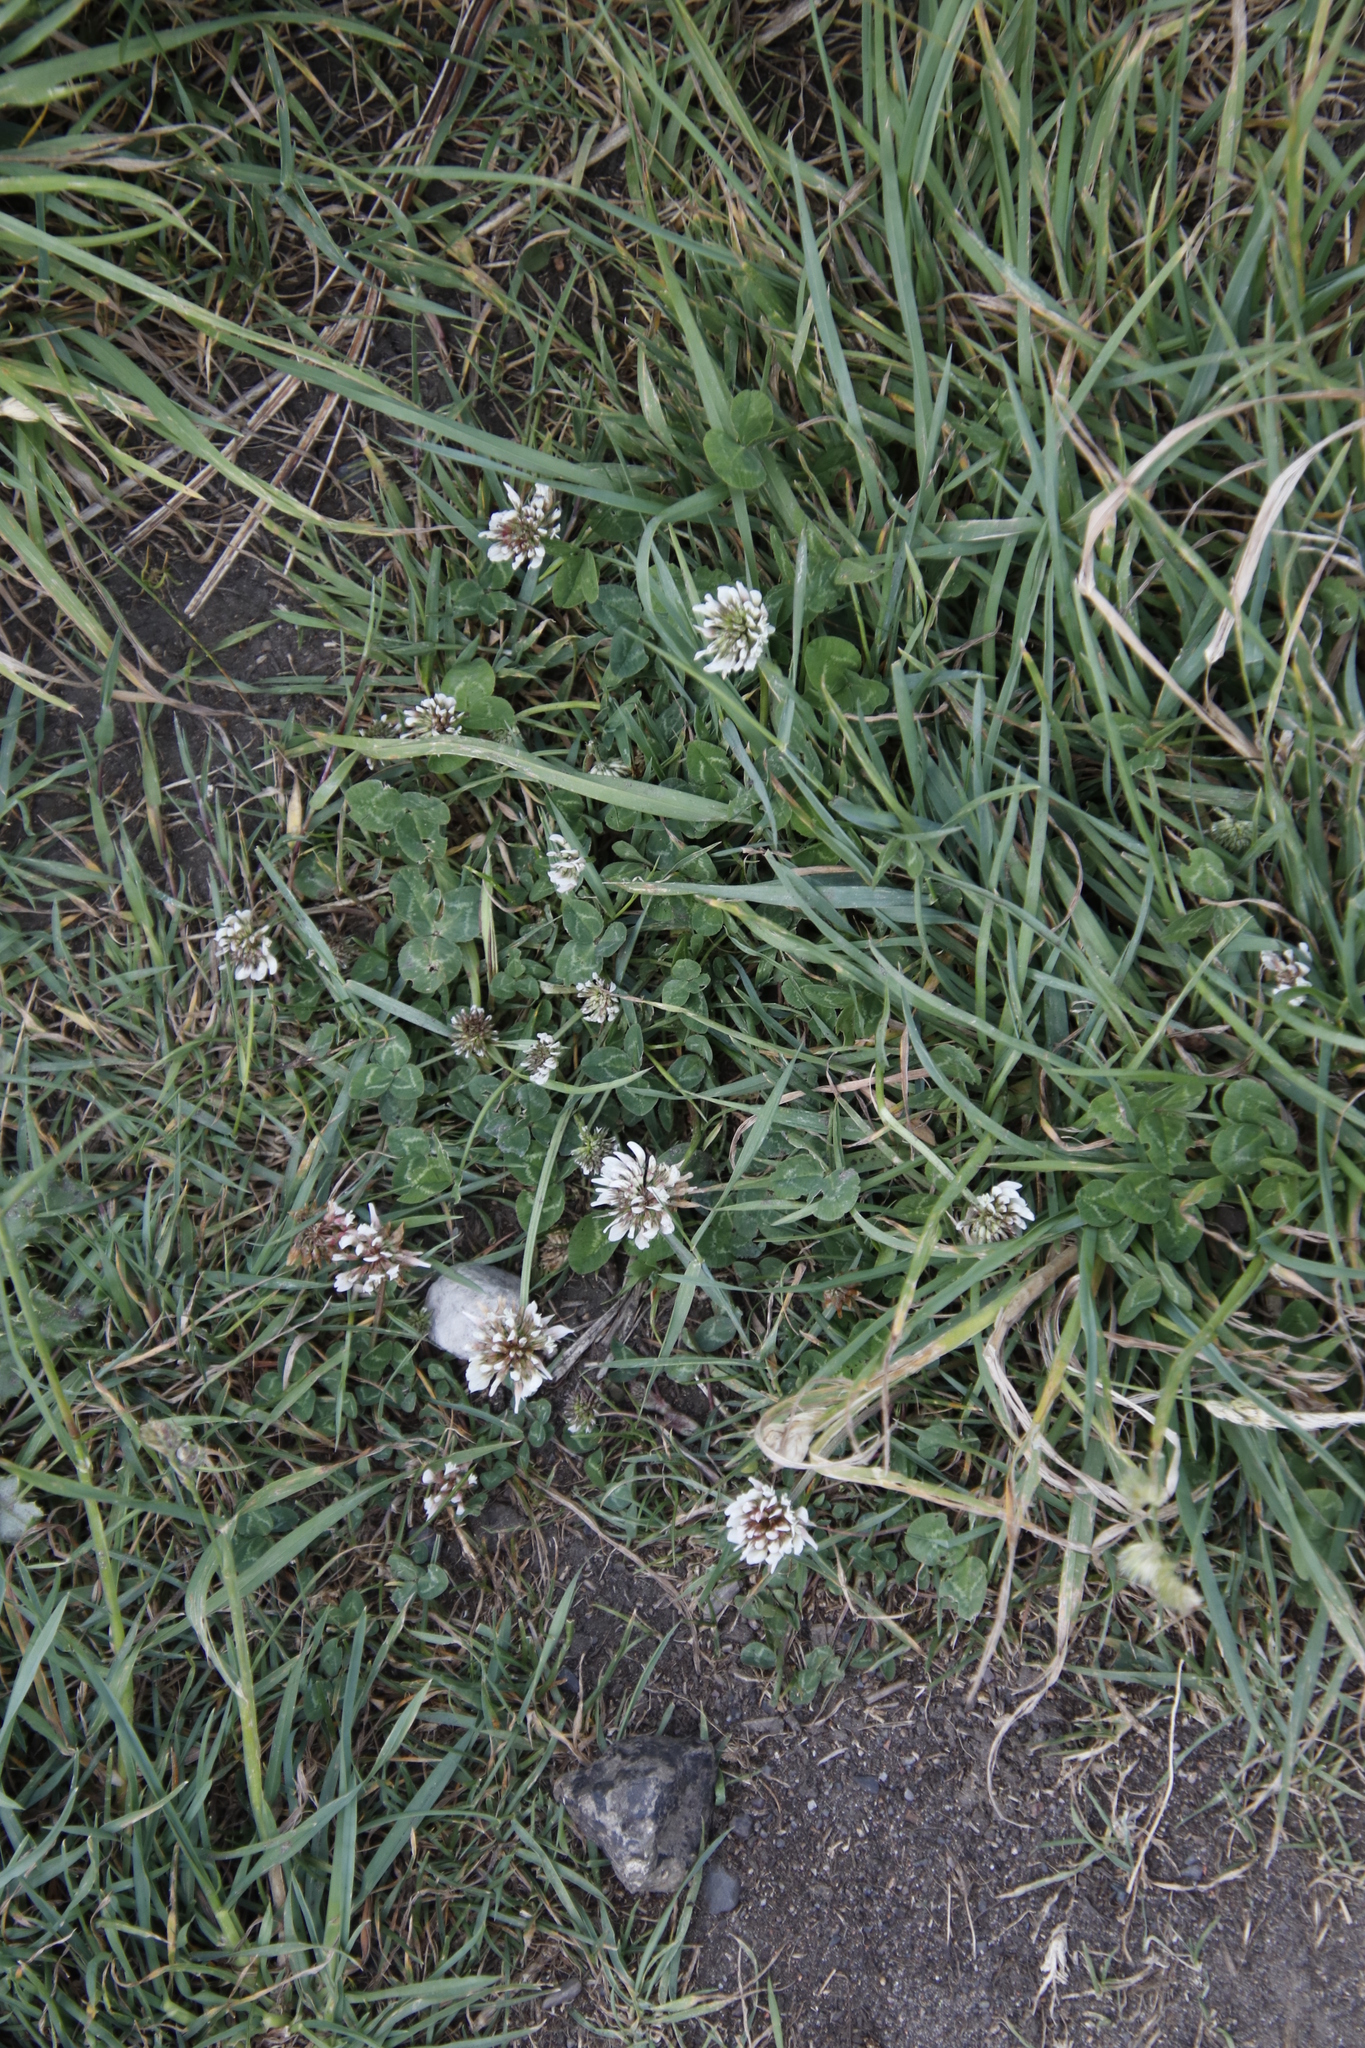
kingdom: Plantae
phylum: Tracheophyta
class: Magnoliopsida
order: Fabales
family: Fabaceae
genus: Trifolium
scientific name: Trifolium repens
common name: White clover
